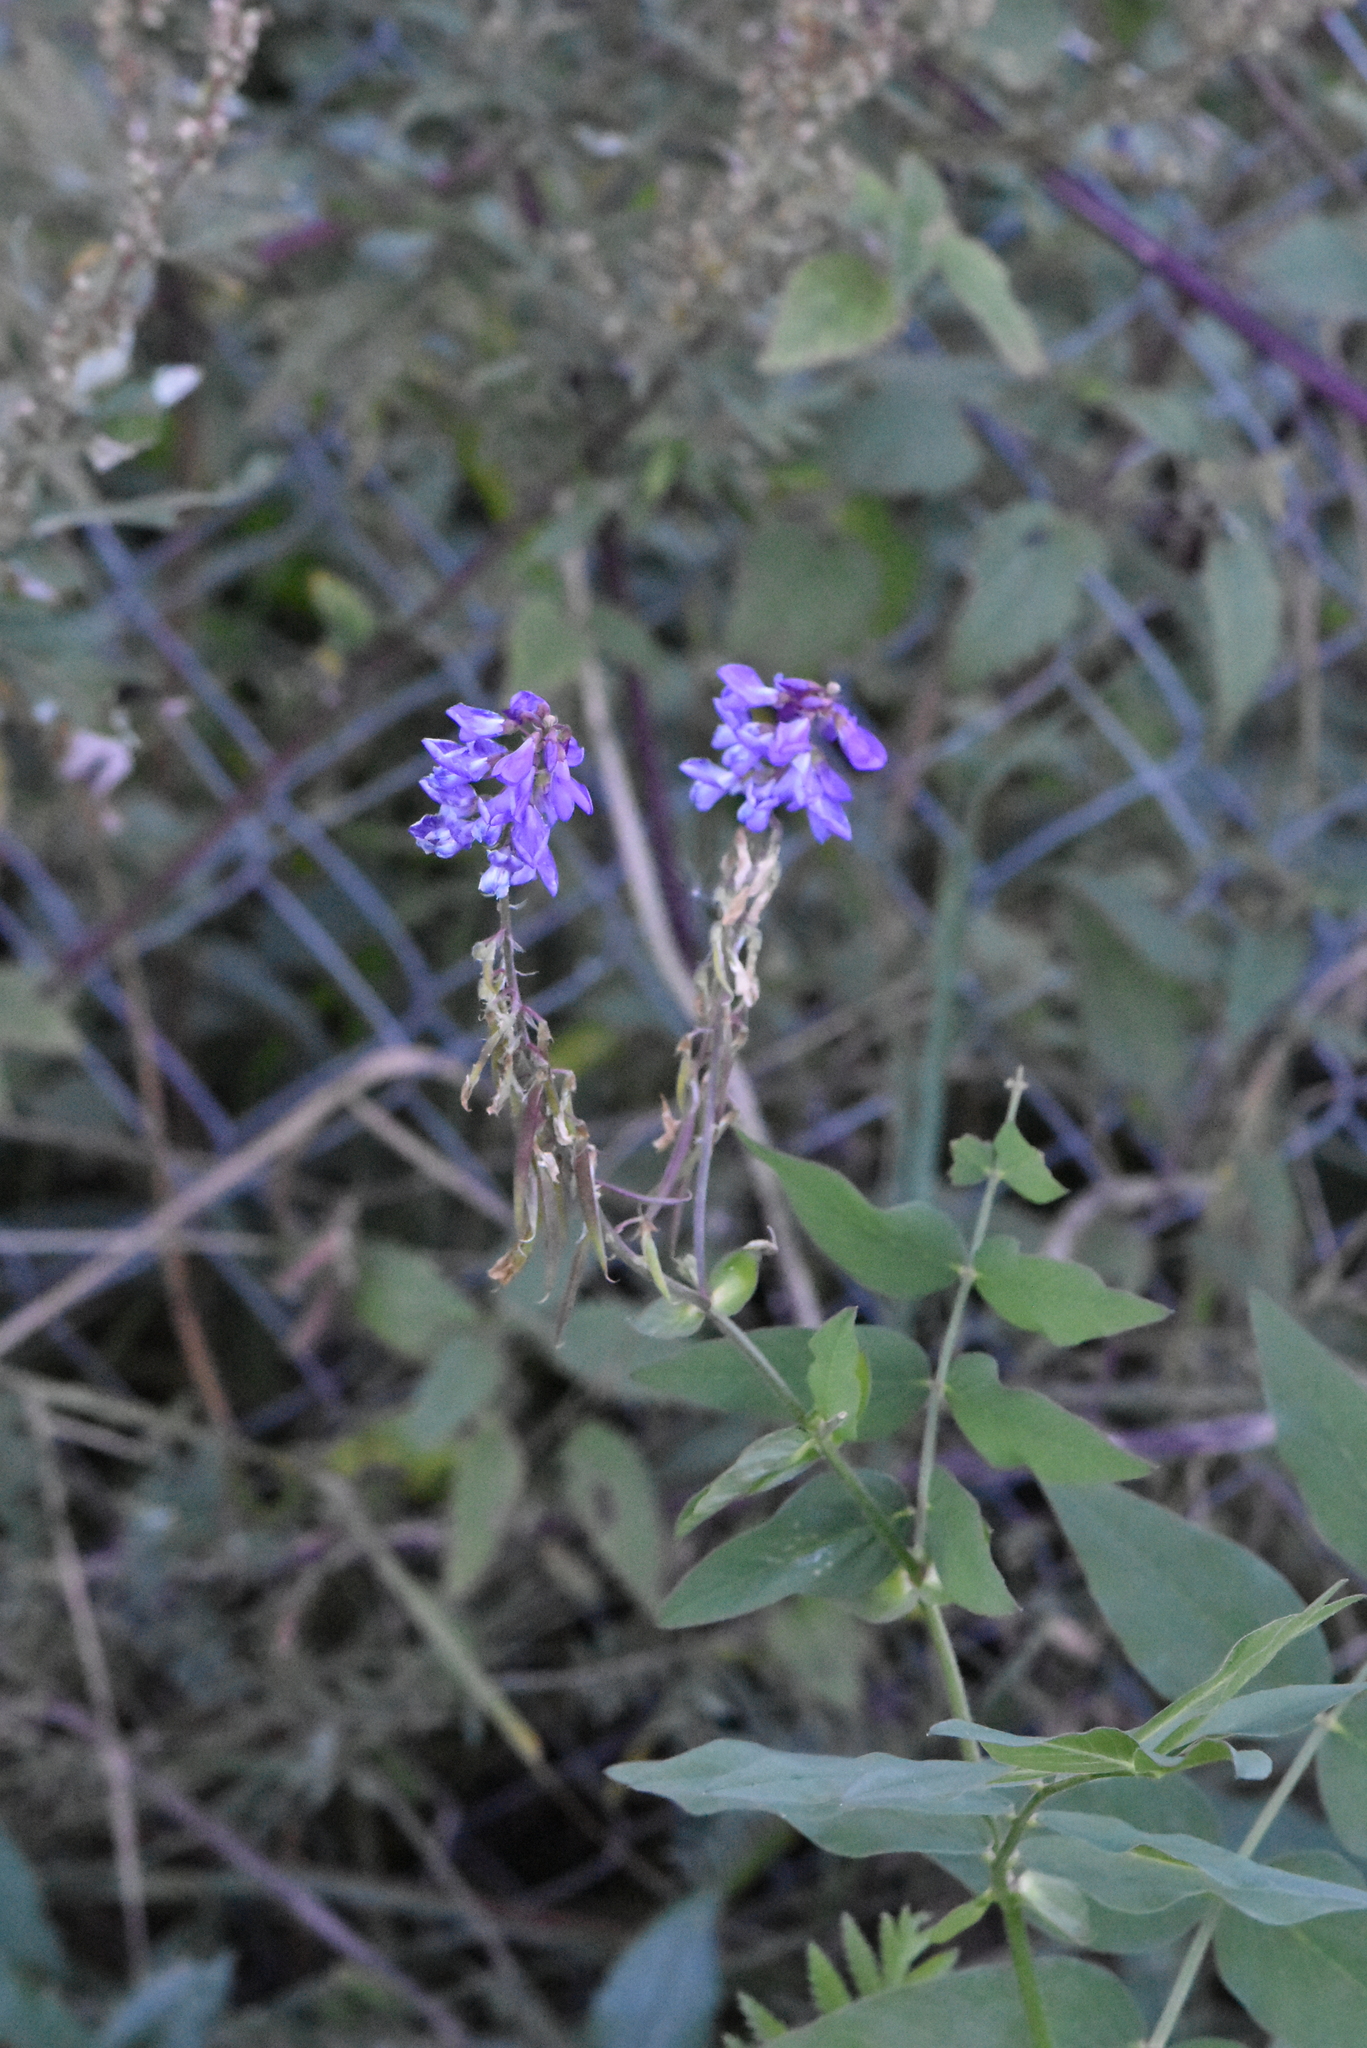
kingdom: Plantae
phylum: Tracheophyta
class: Magnoliopsida
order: Fabales
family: Fabaceae
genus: Galega
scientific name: Galega orientalis
